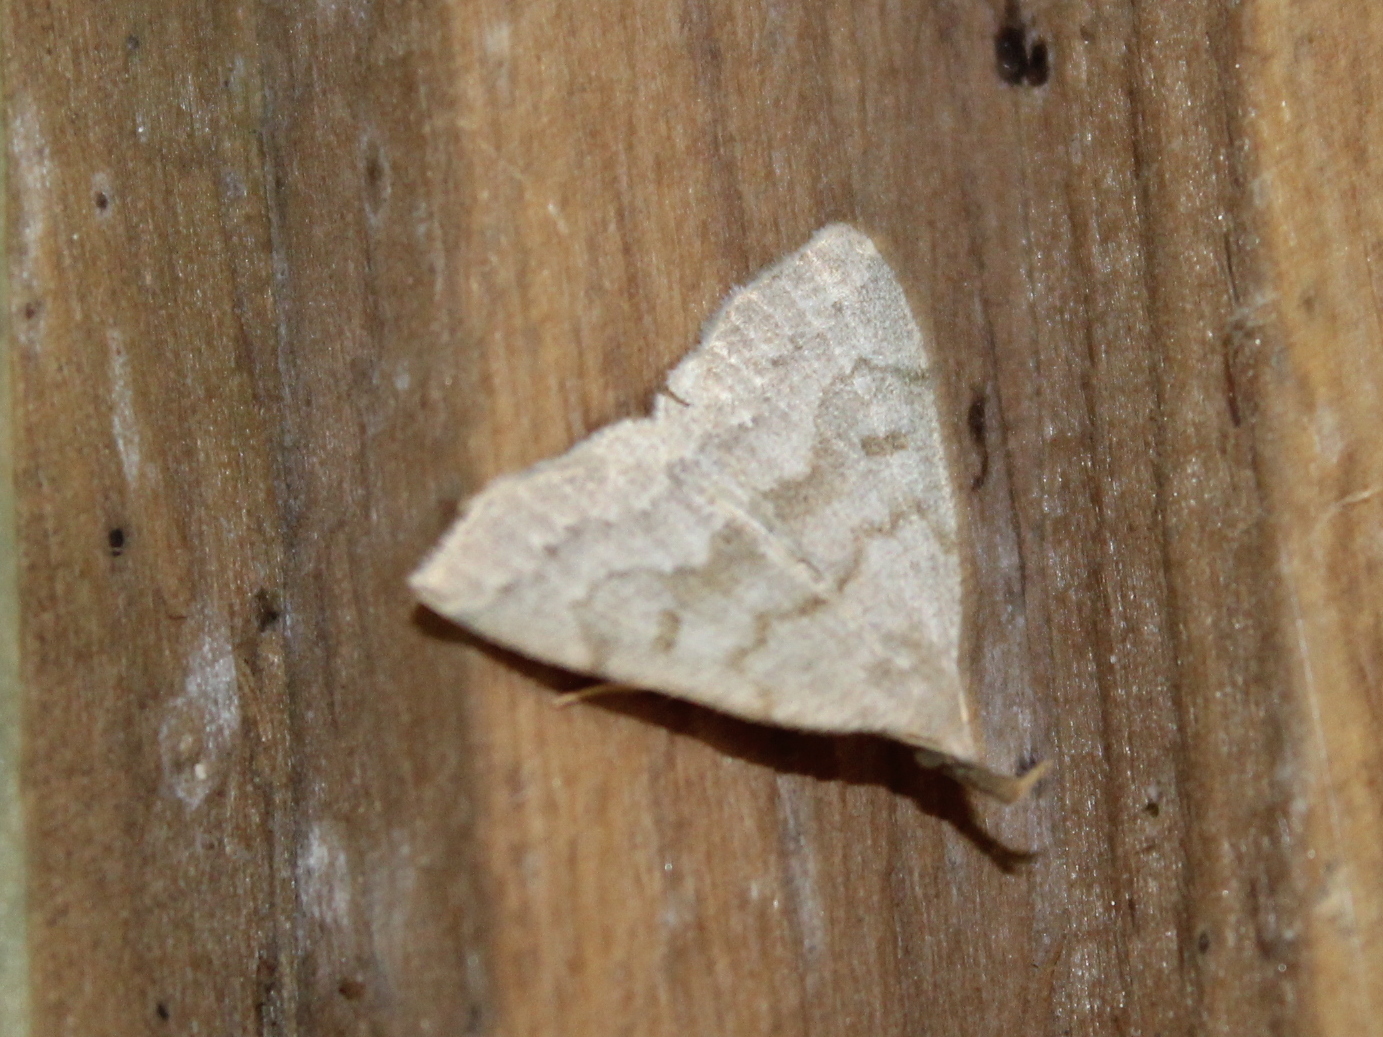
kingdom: Animalia
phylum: Arthropoda
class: Insecta
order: Lepidoptera
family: Erebidae
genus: Macrochilo
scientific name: Macrochilo morbidalis
